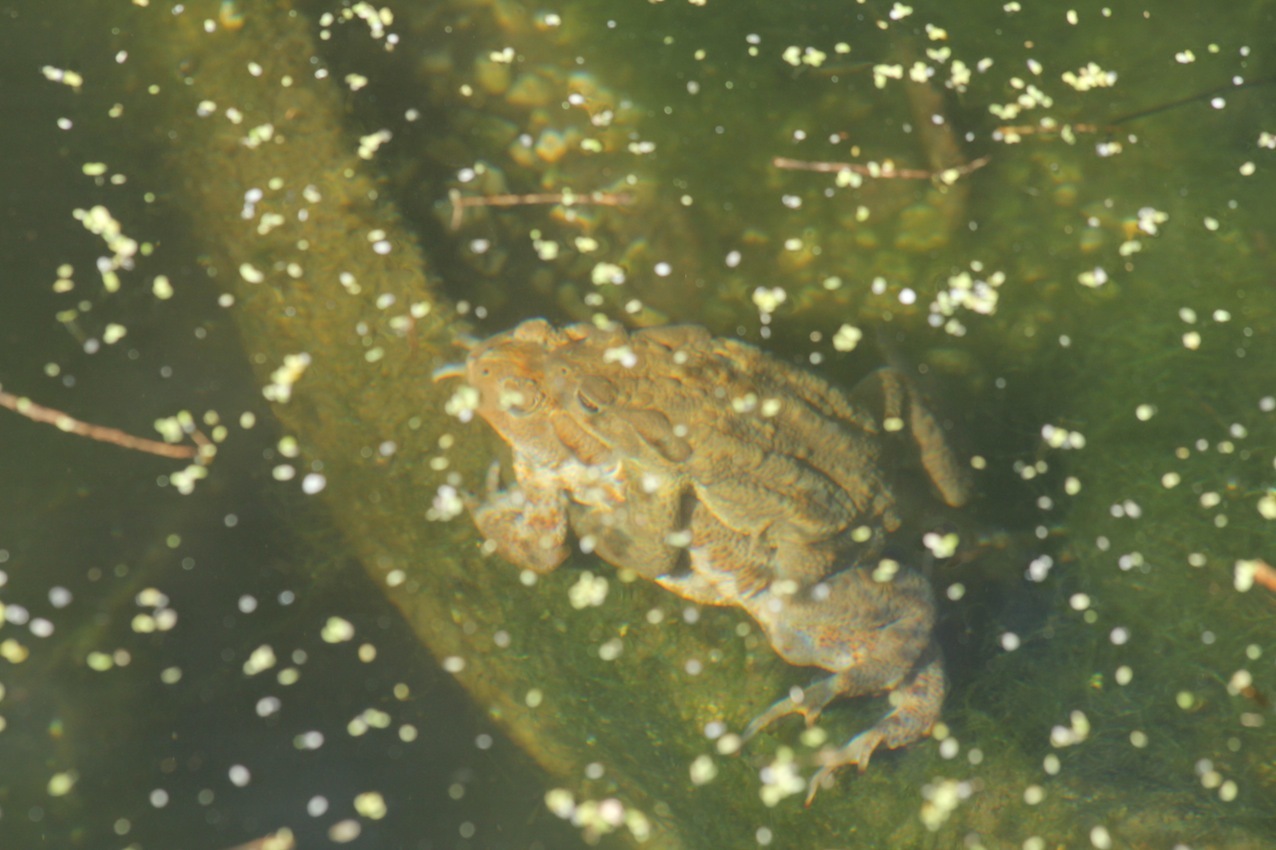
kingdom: Animalia
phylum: Chordata
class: Amphibia
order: Anura
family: Bufonidae
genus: Bufo
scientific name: Bufo bufo
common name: Common toad
